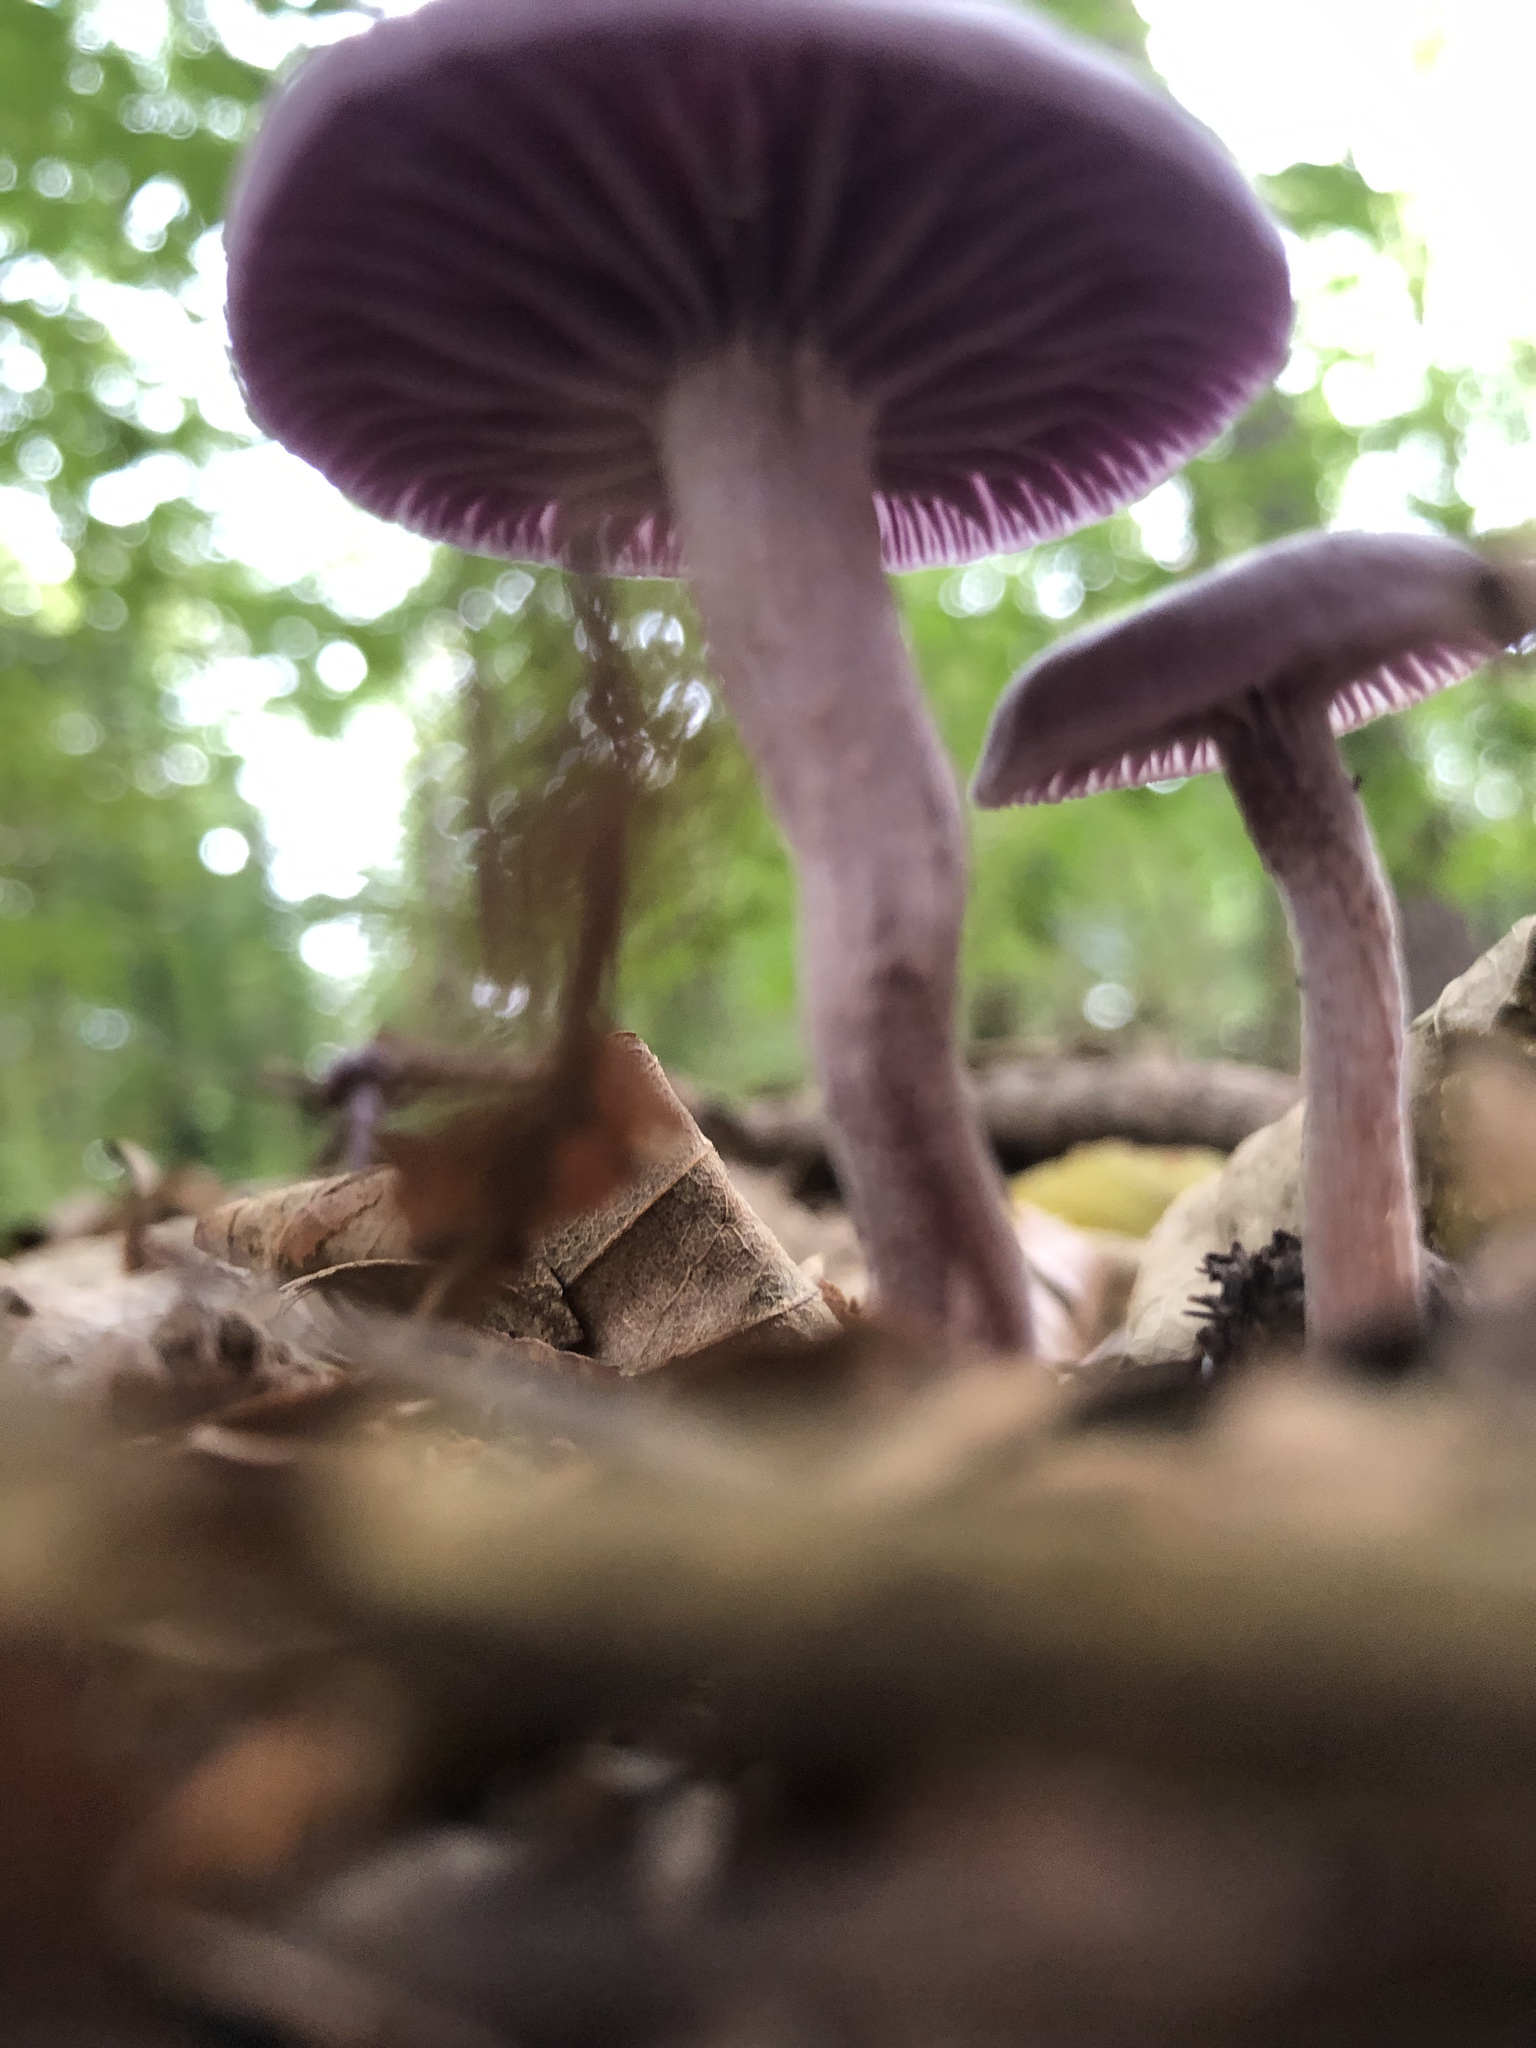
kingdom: Fungi
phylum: Basidiomycota
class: Agaricomycetes
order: Agaricales
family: Hydnangiaceae
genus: Laccaria
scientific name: Laccaria amethystina
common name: Amethyst deceiver
